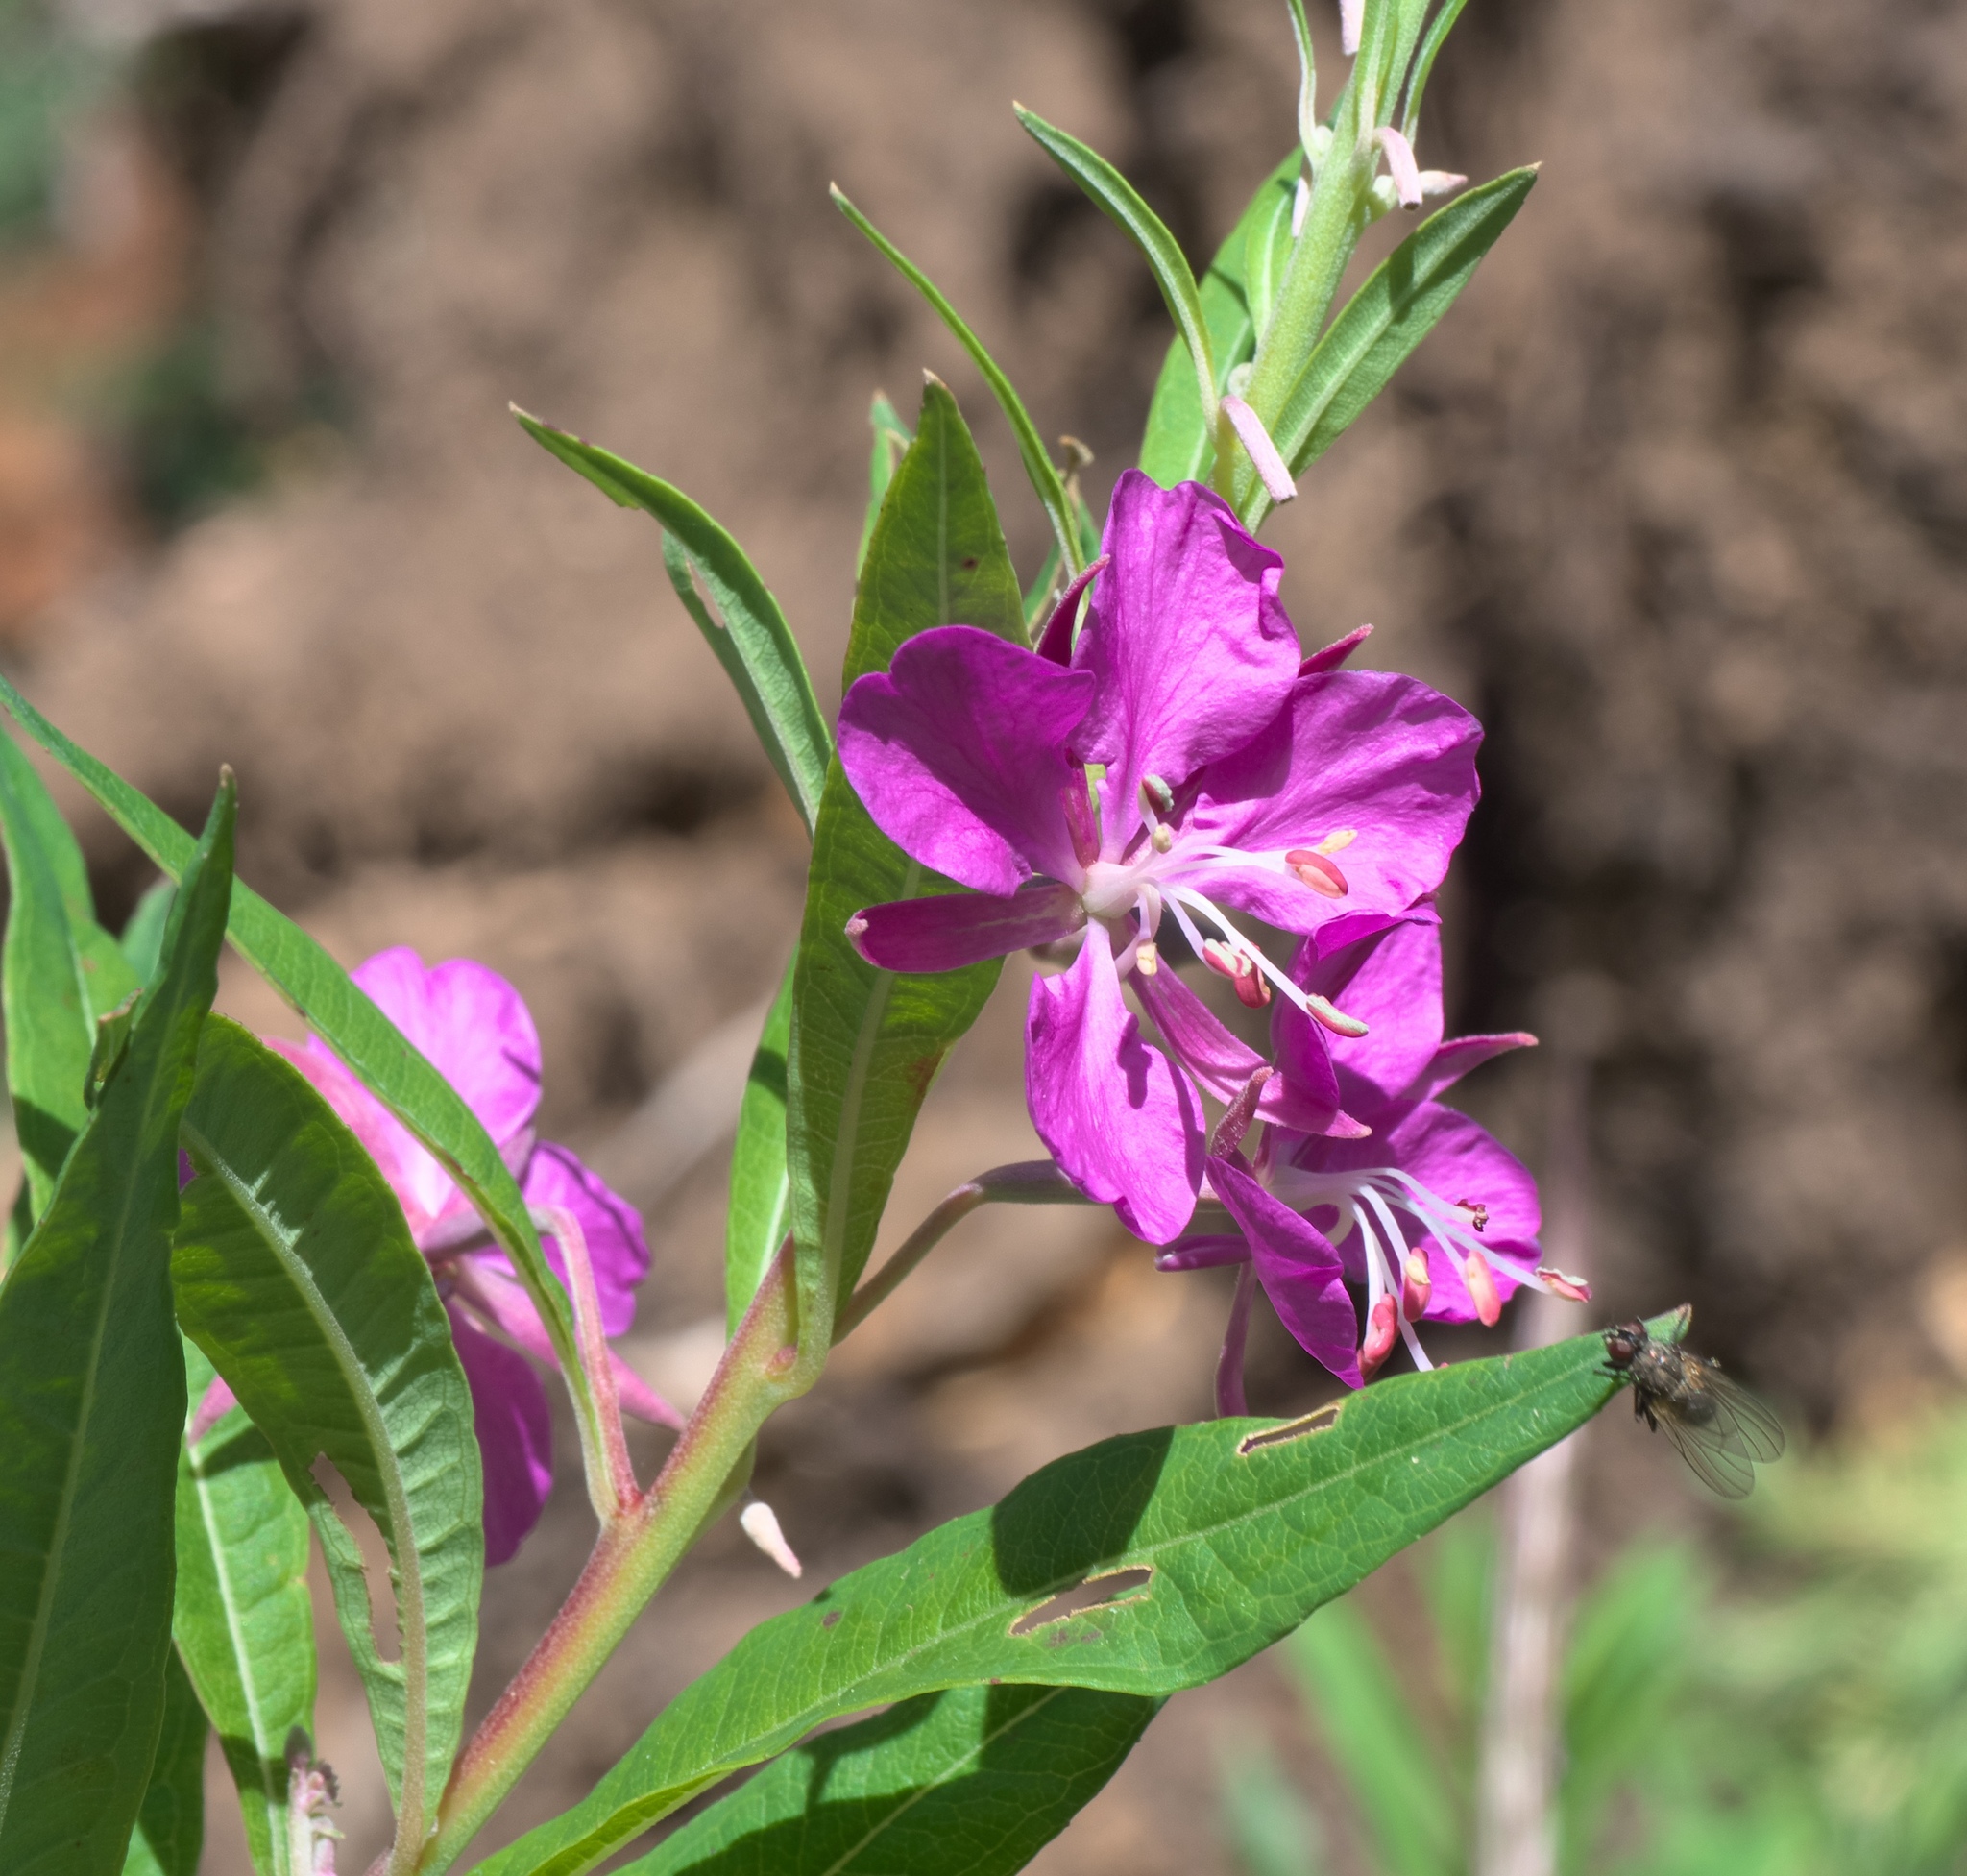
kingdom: Plantae
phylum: Tracheophyta
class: Magnoliopsida
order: Myrtales
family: Onagraceae
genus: Chamaenerion
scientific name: Chamaenerion angustifolium
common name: Fireweed
